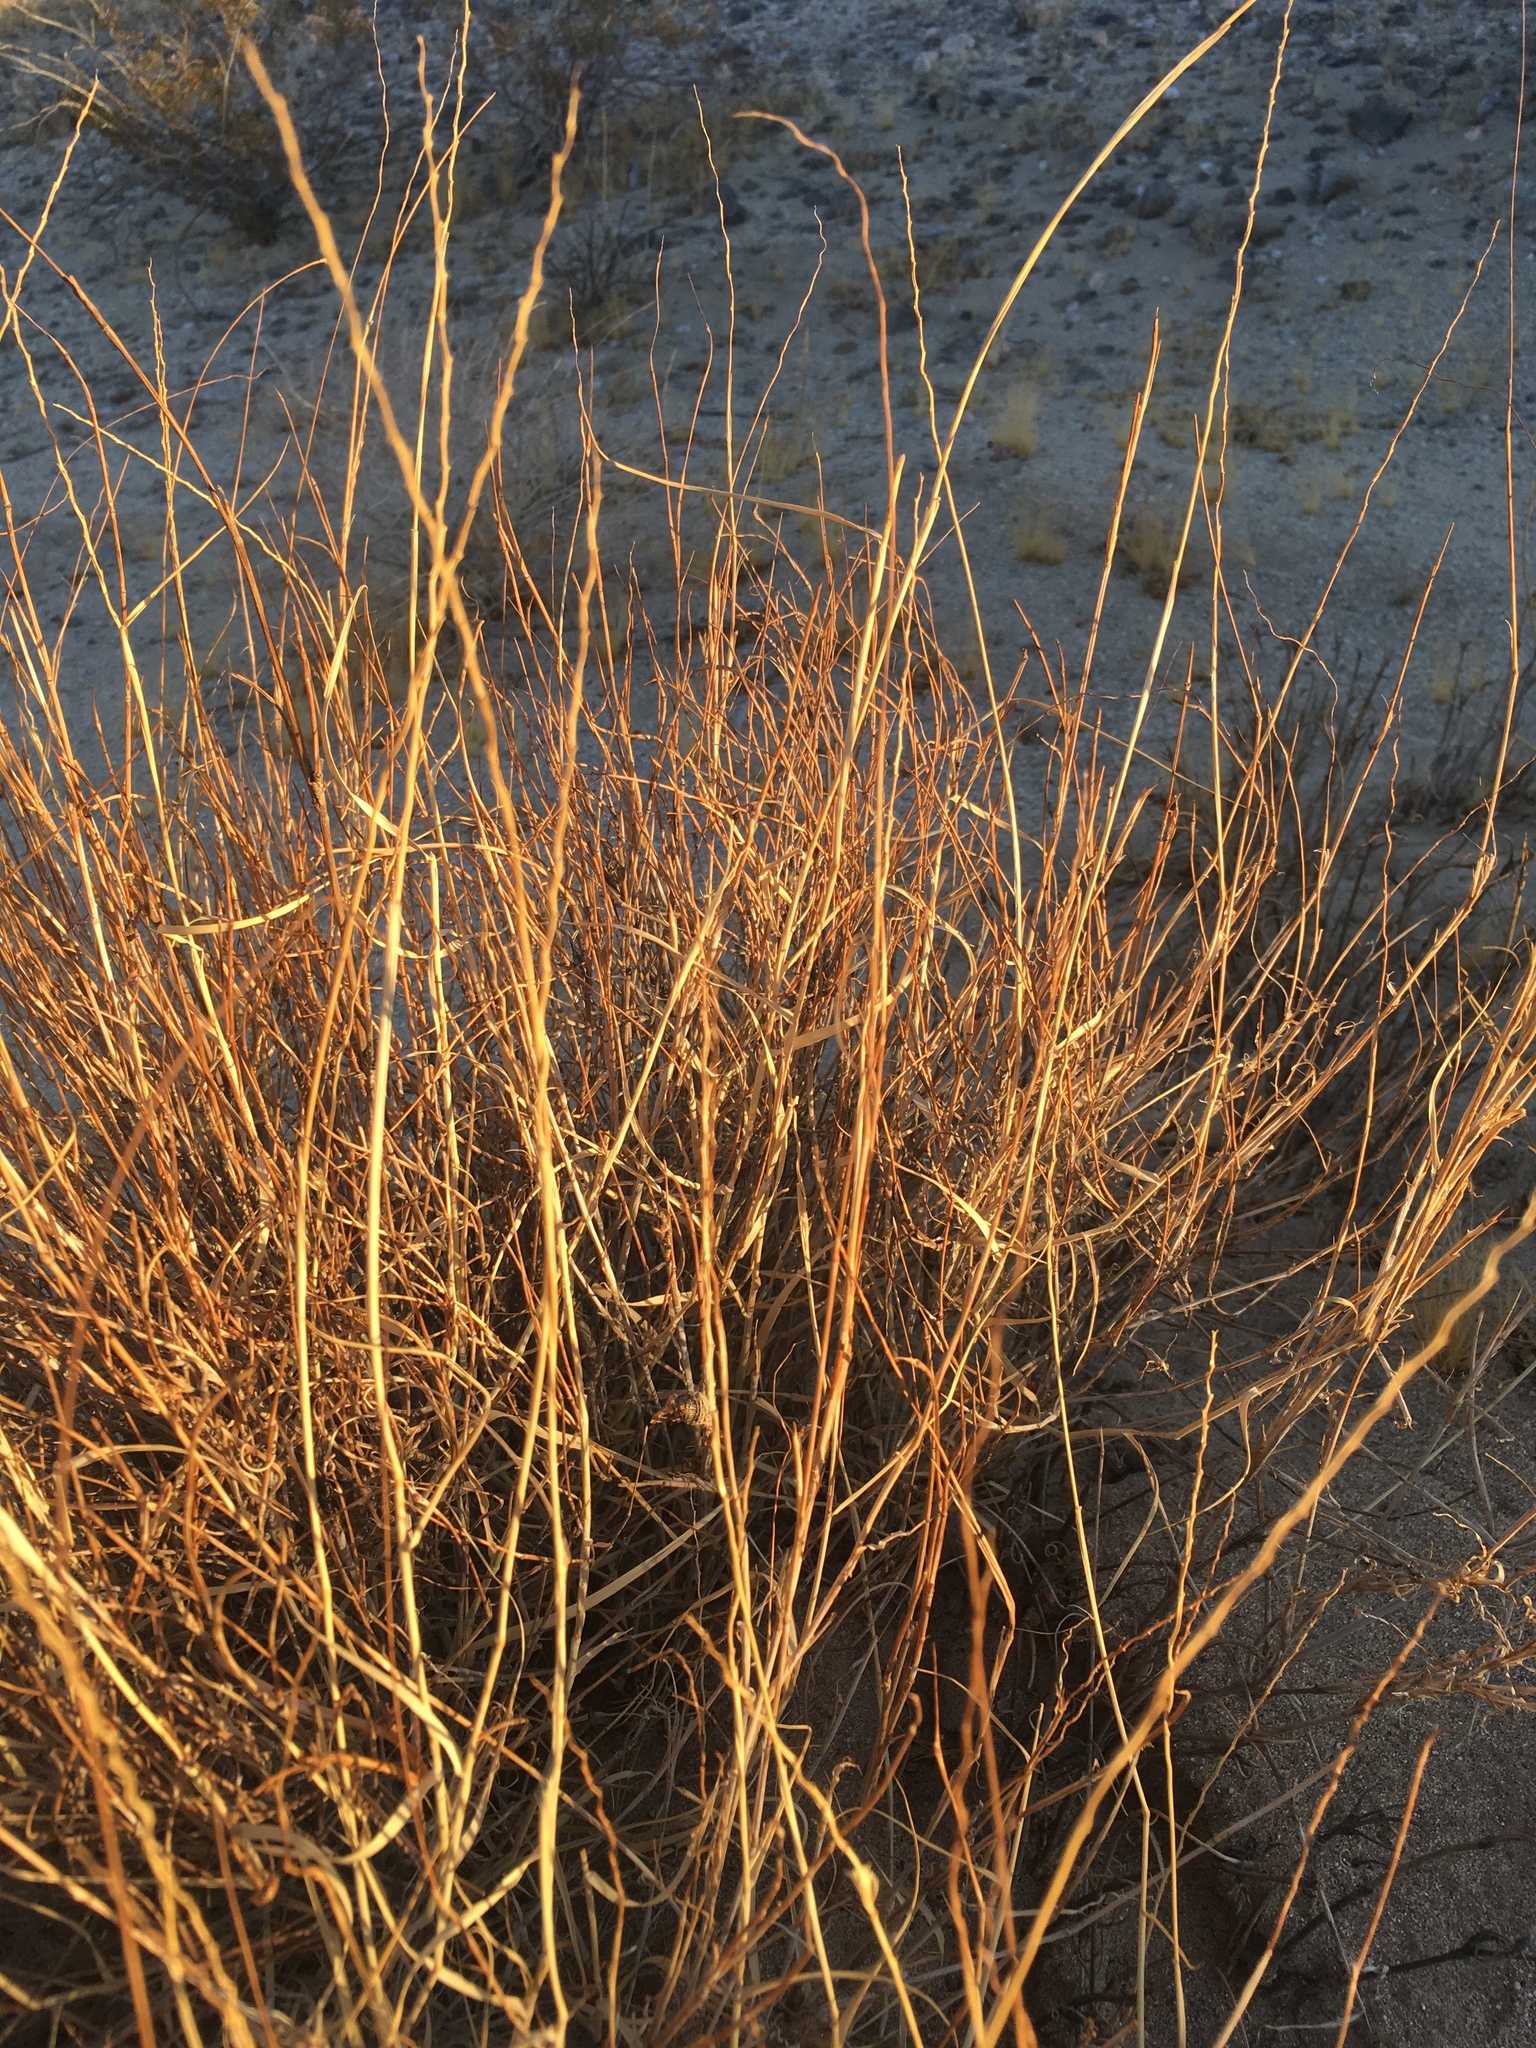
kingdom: Plantae
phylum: Tracheophyta
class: Liliopsida
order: Poales
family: Poaceae
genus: Hilaria
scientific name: Hilaria rigida
